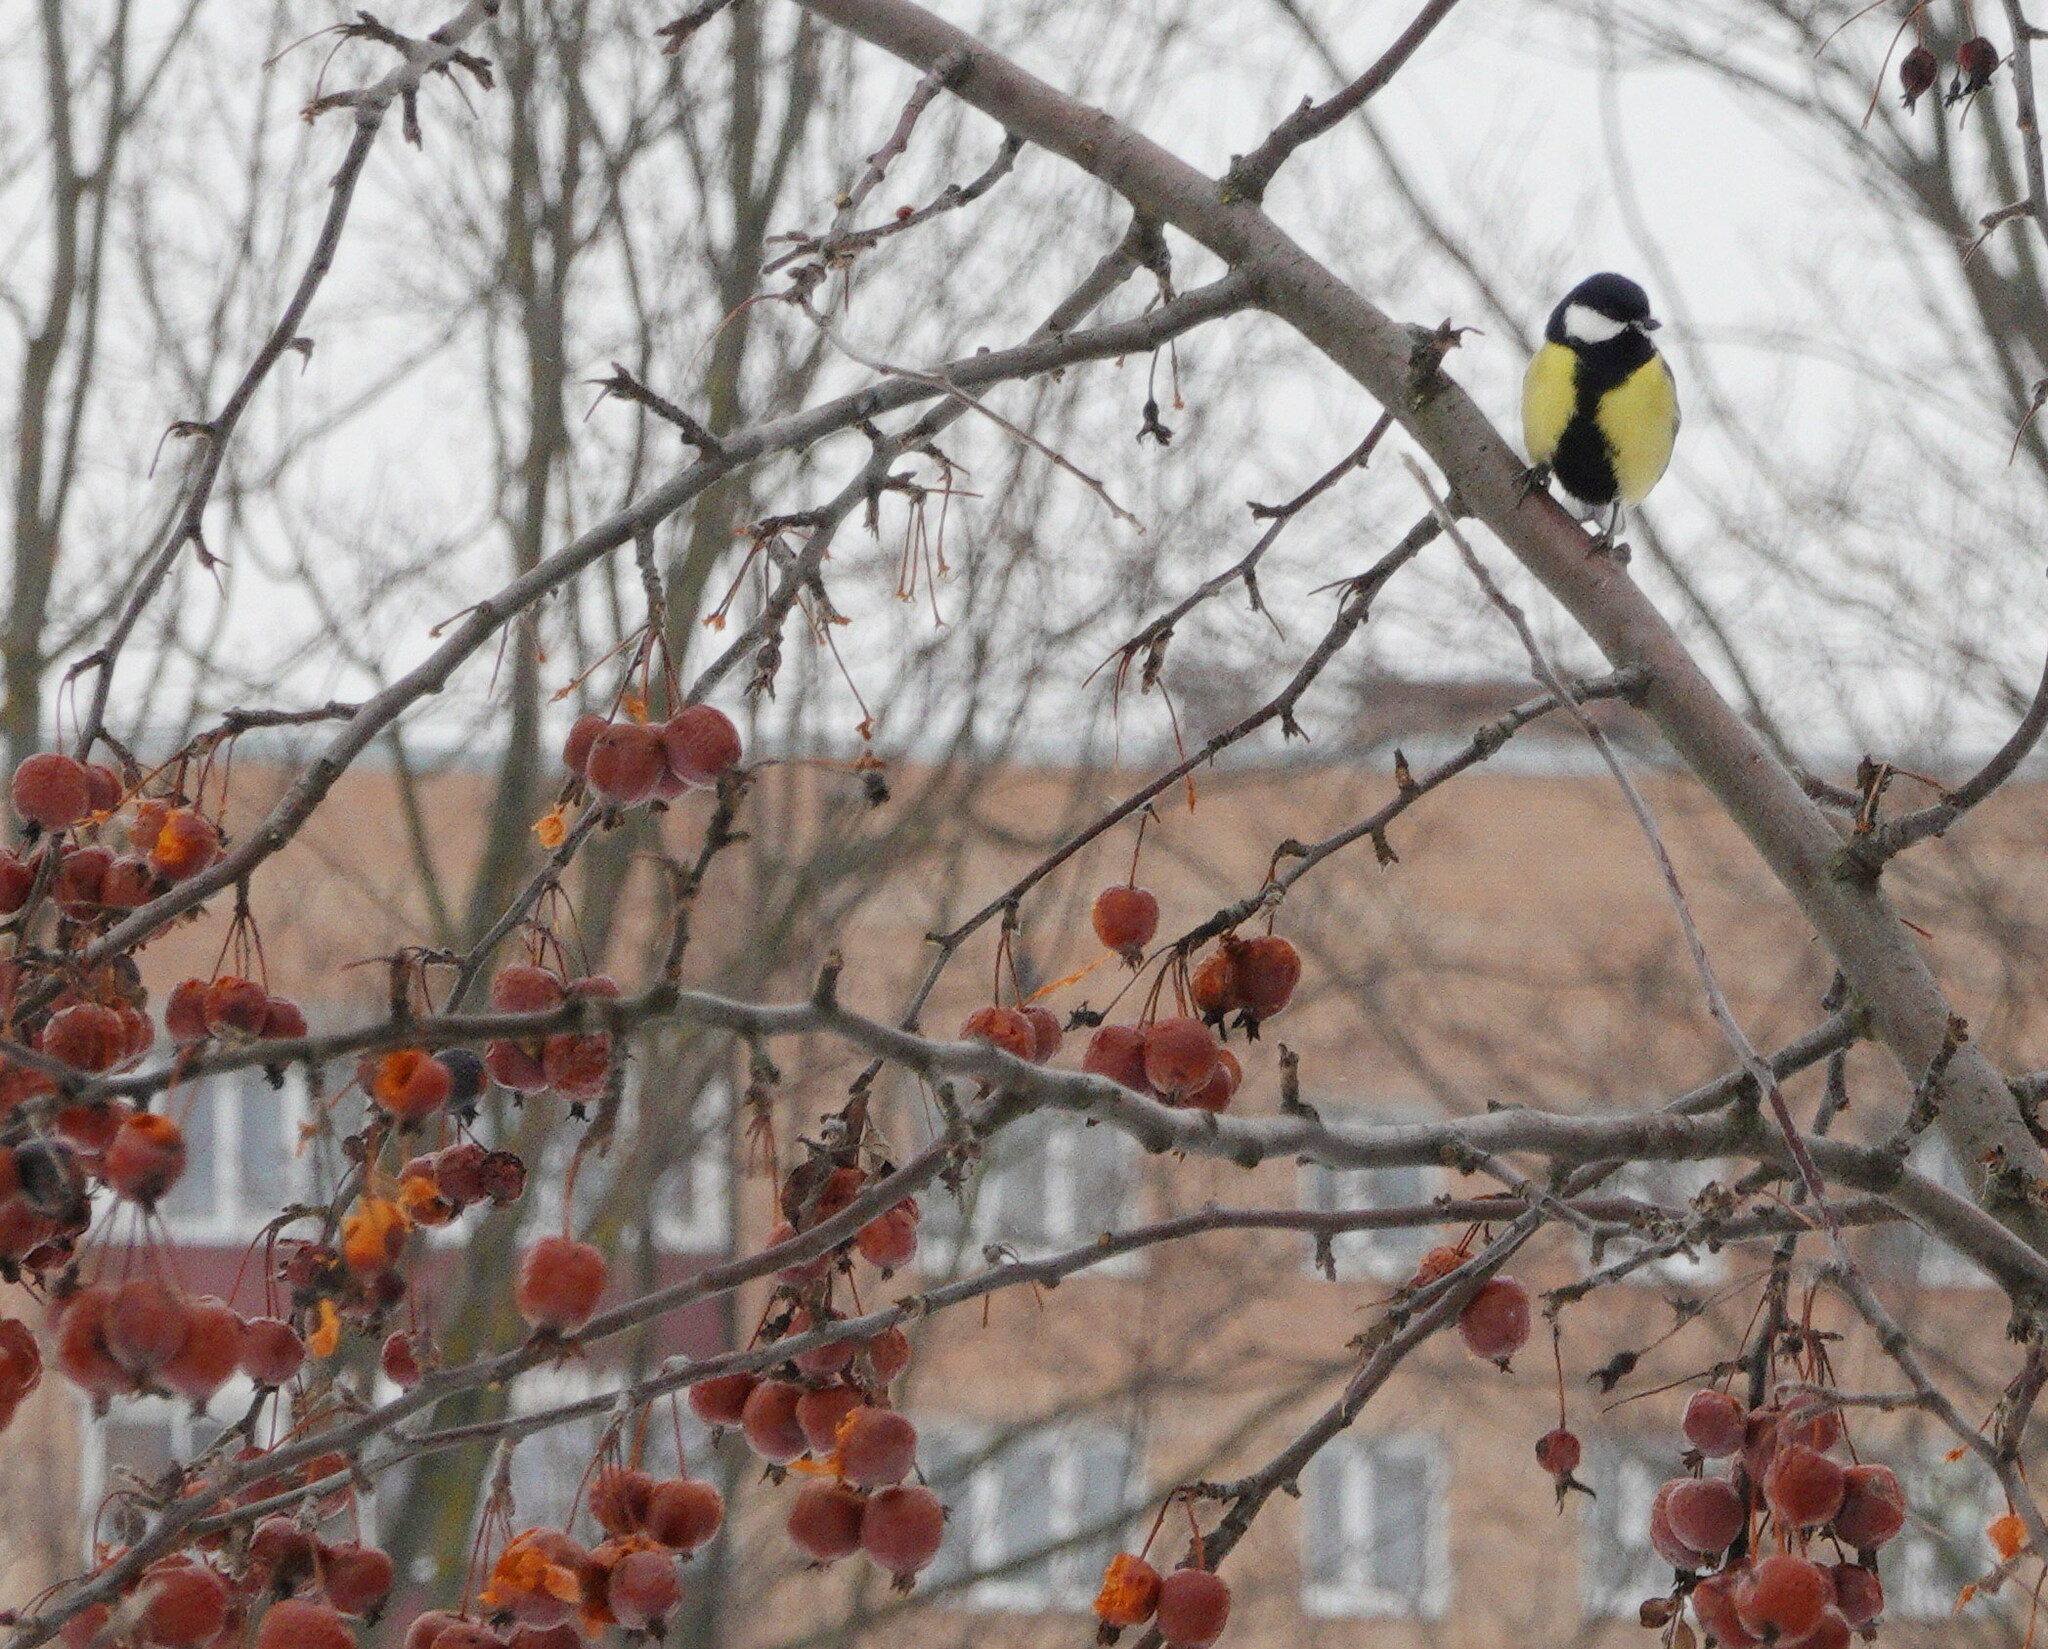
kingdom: Animalia
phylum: Chordata
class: Aves
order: Passeriformes
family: Paridae
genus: Parus
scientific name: Parus major
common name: Great tit
